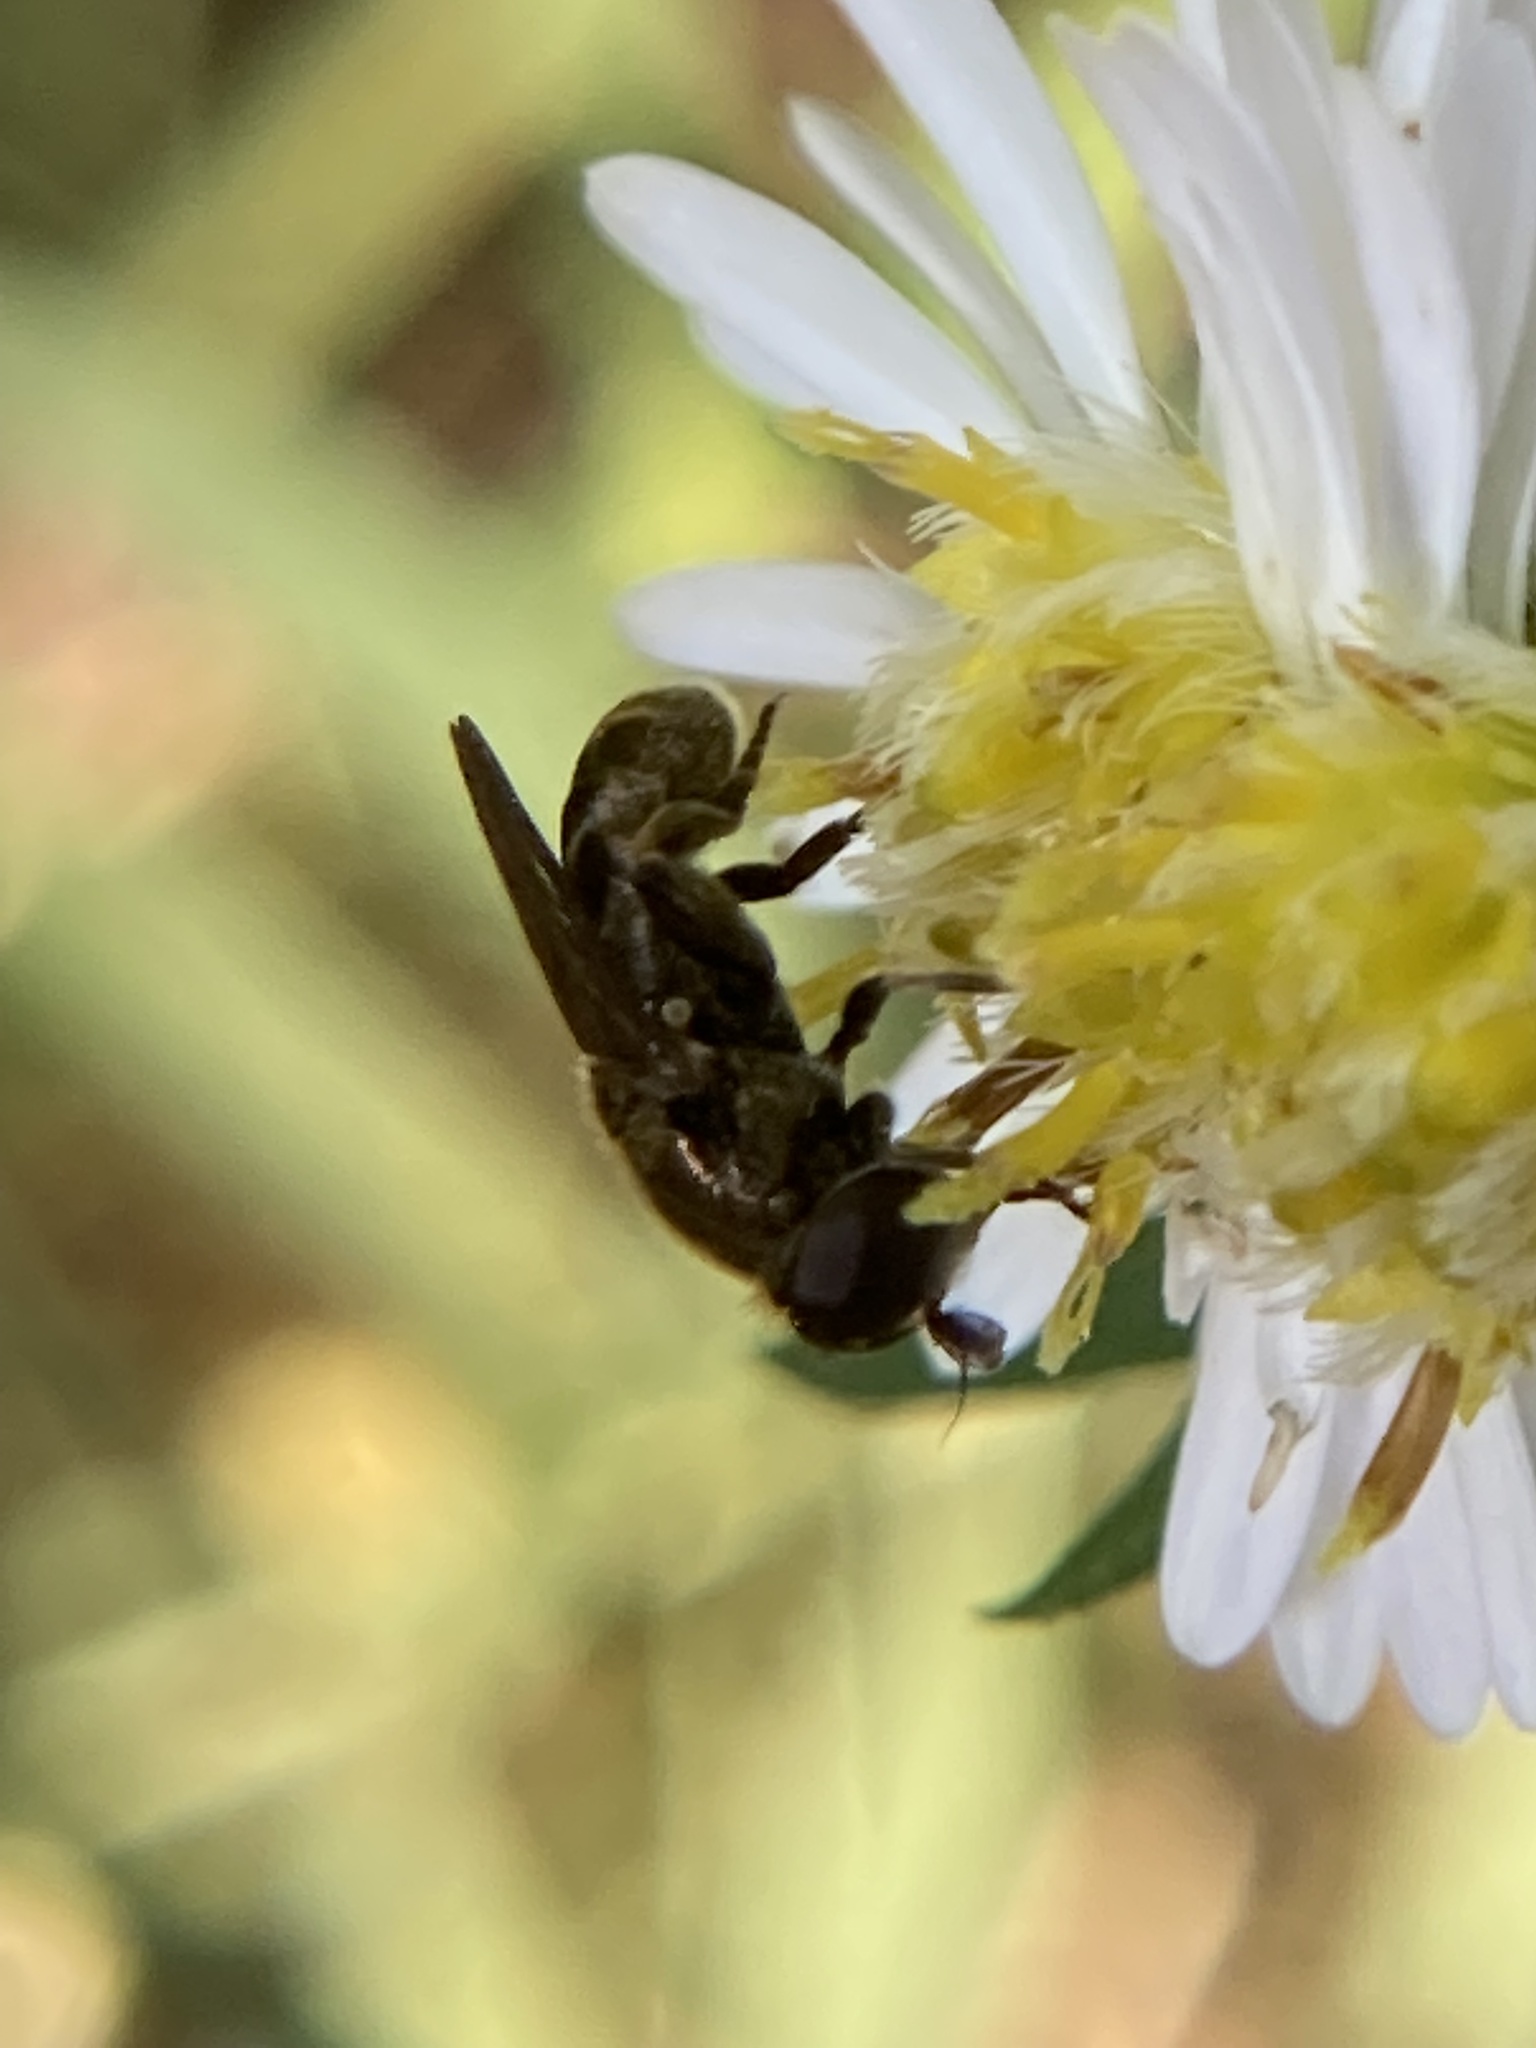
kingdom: Animalia
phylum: Arthropoda
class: Insecta
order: Diptera
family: Syrphidae
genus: Eumerus
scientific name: Eumerus
